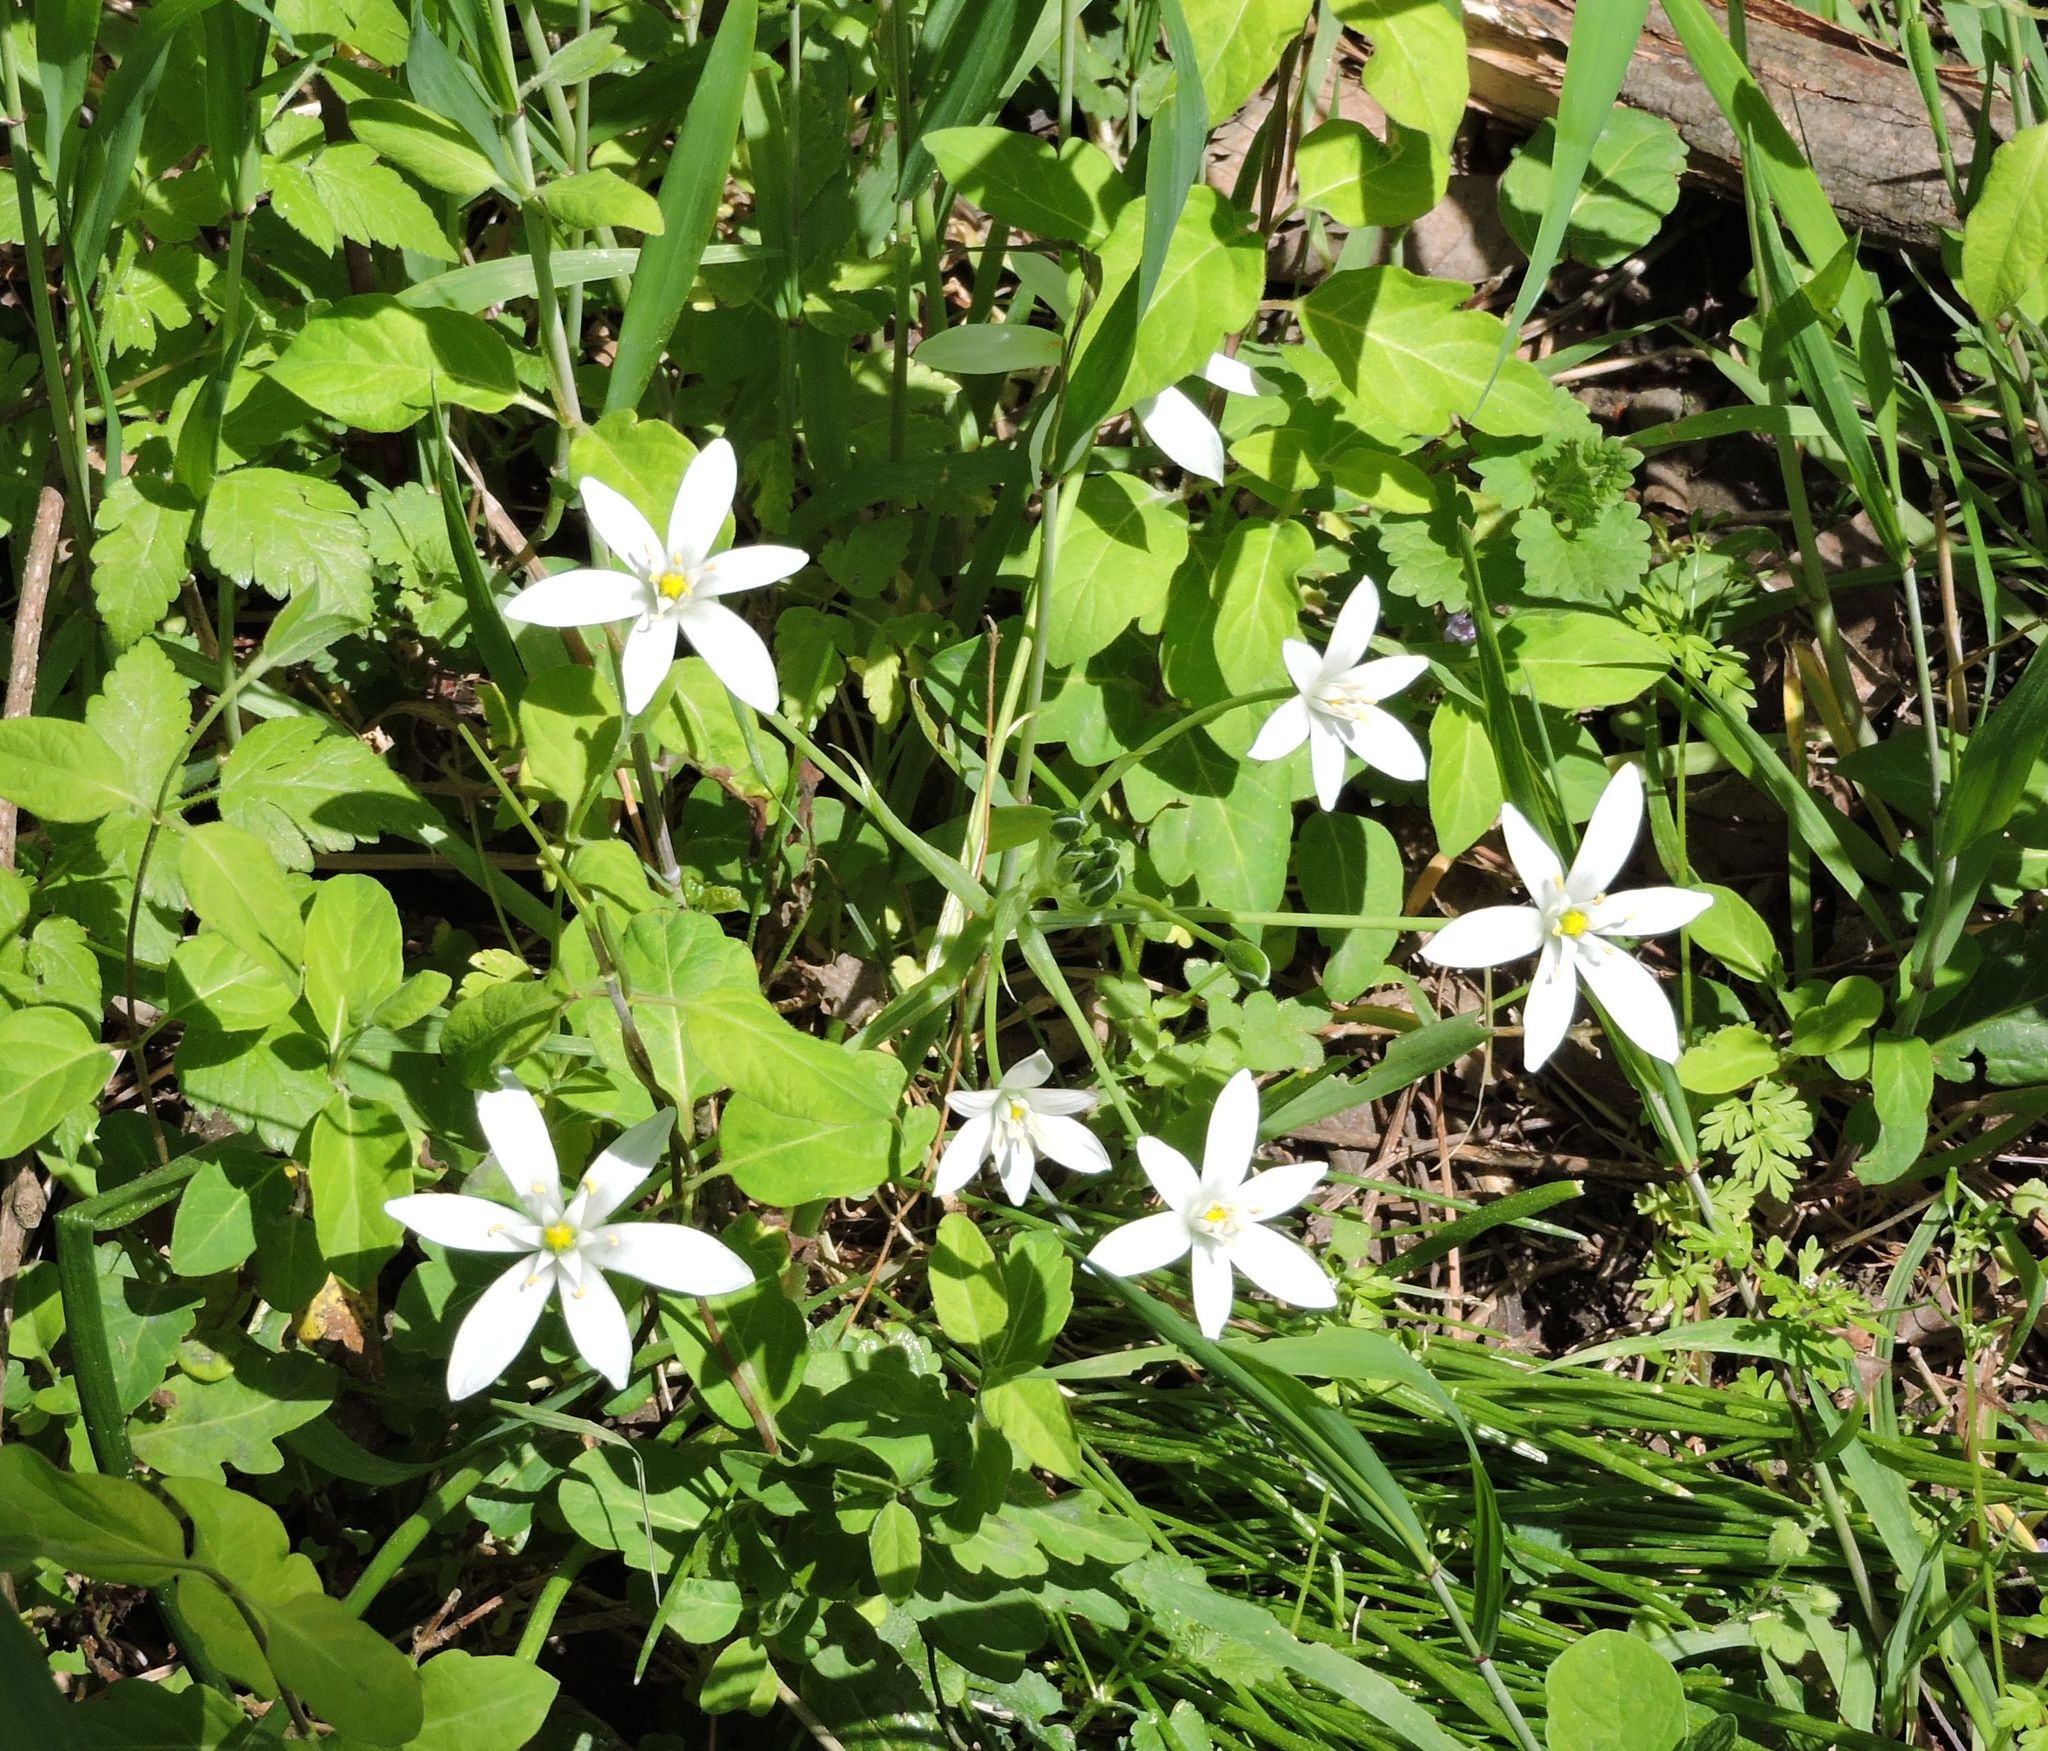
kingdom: Plantae
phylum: Tracheophyta
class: Liliopsida
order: Asparagales
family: Asparagaceae
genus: Ornithogalum
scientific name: Ornithogalum umbellatum
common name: Garden star-of-bethlehem
